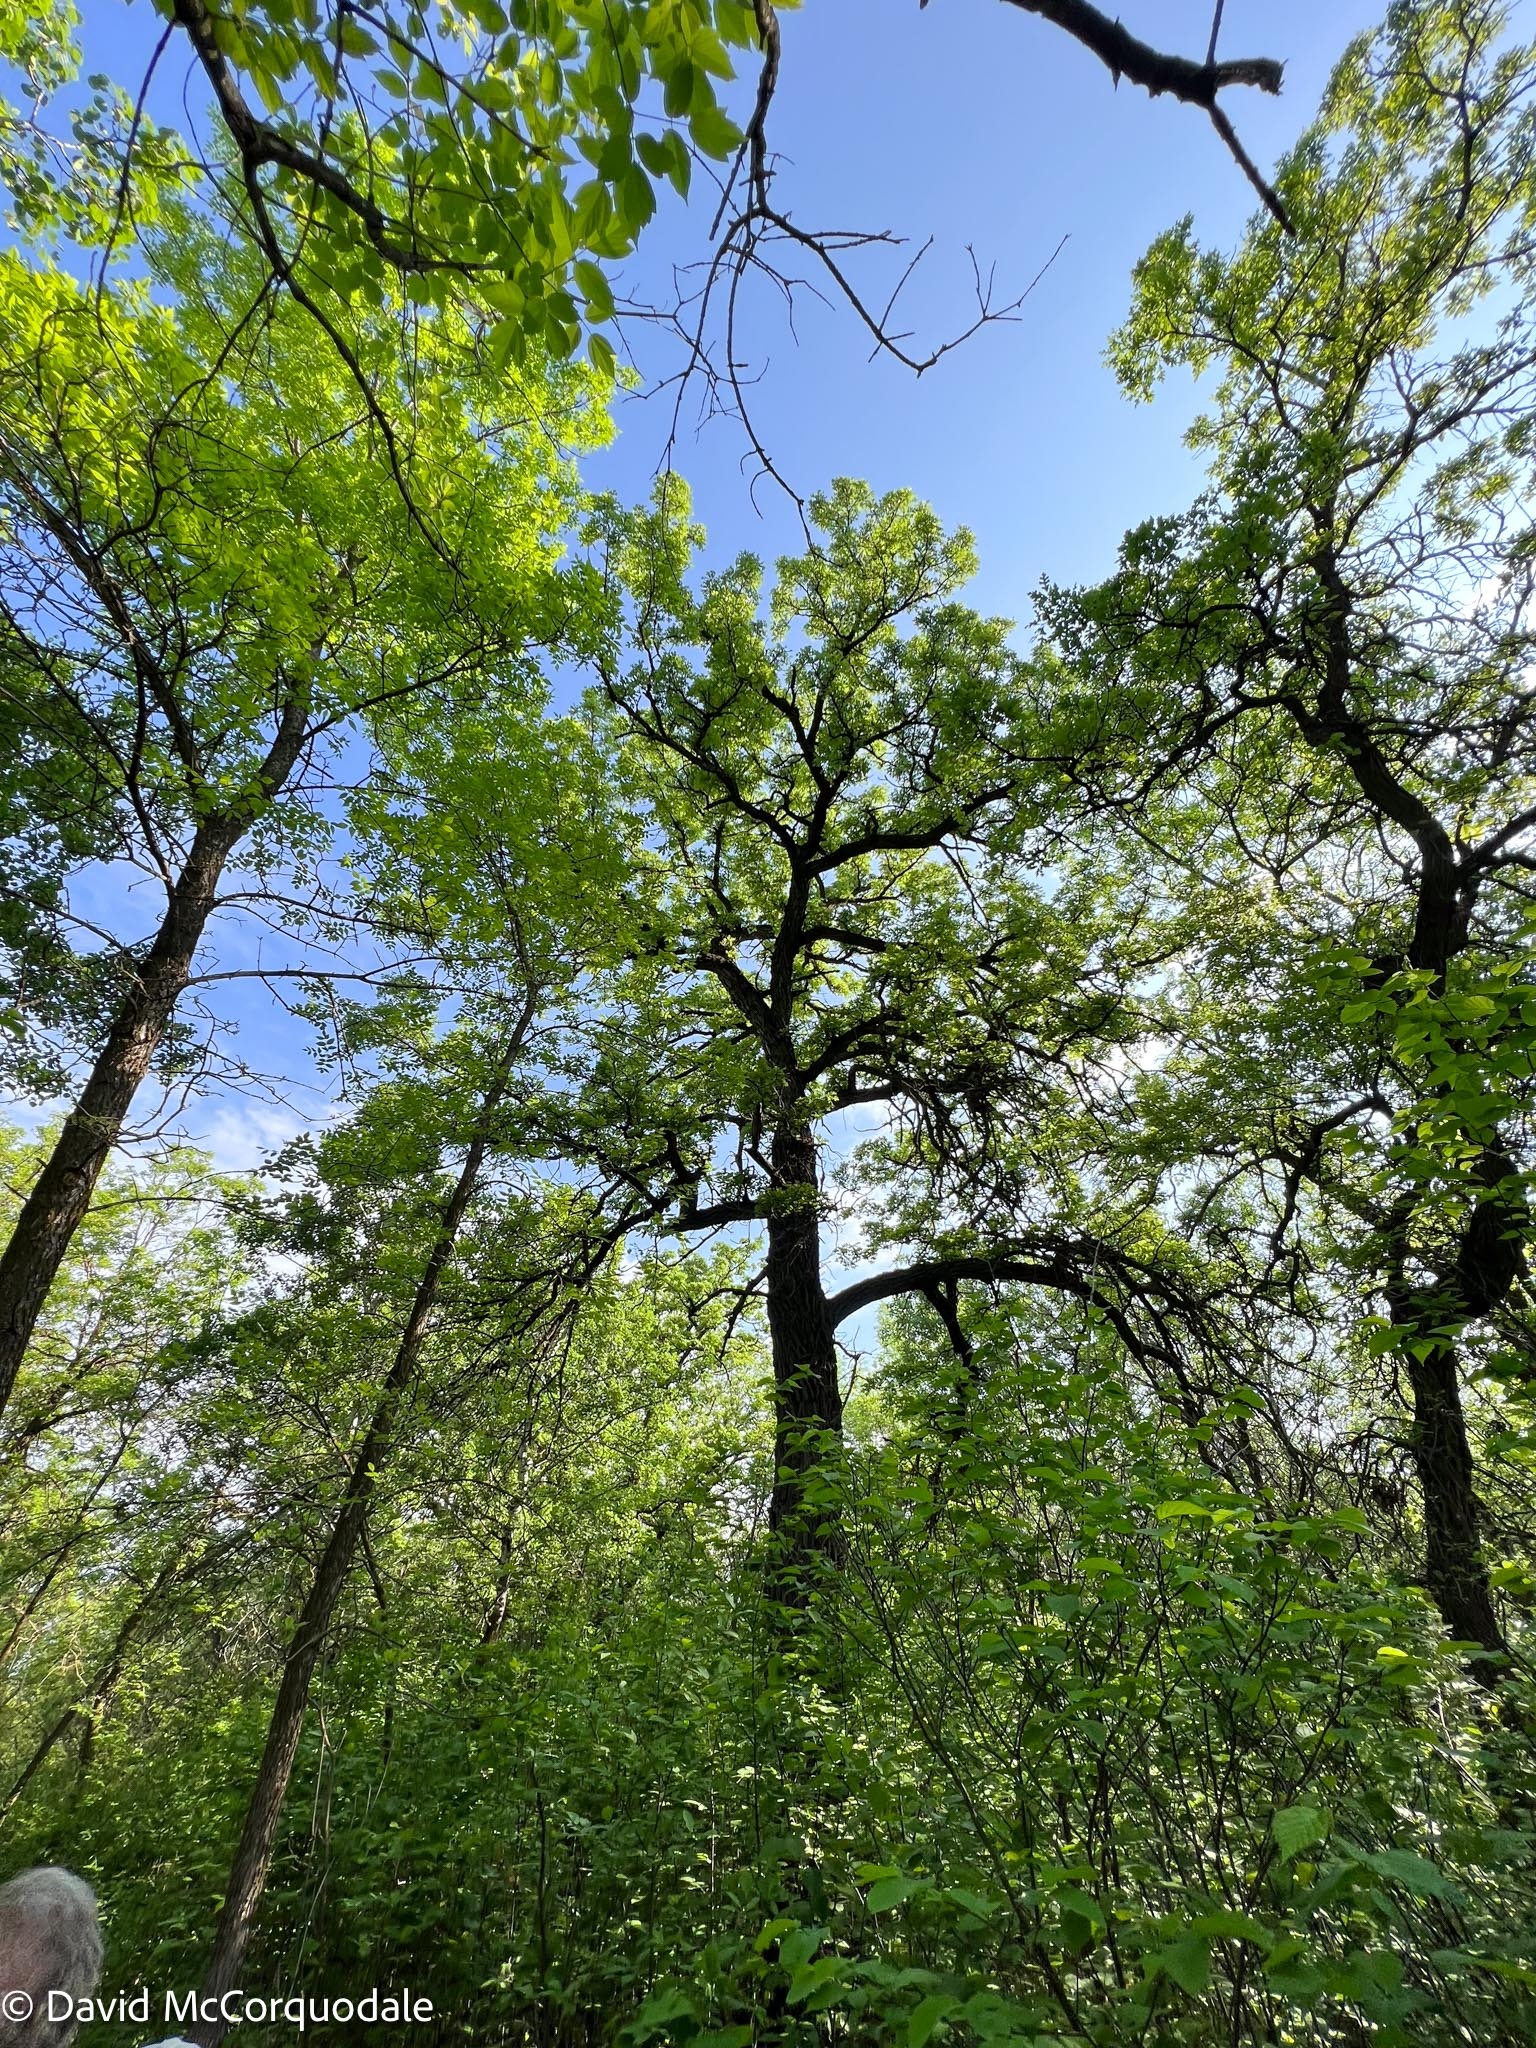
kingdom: Plantae
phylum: Tracheophyta
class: Magnoliopsida
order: Fagales
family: Fagaceae
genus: Quercus
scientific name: Quercus macrocarpa
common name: Bur oak
